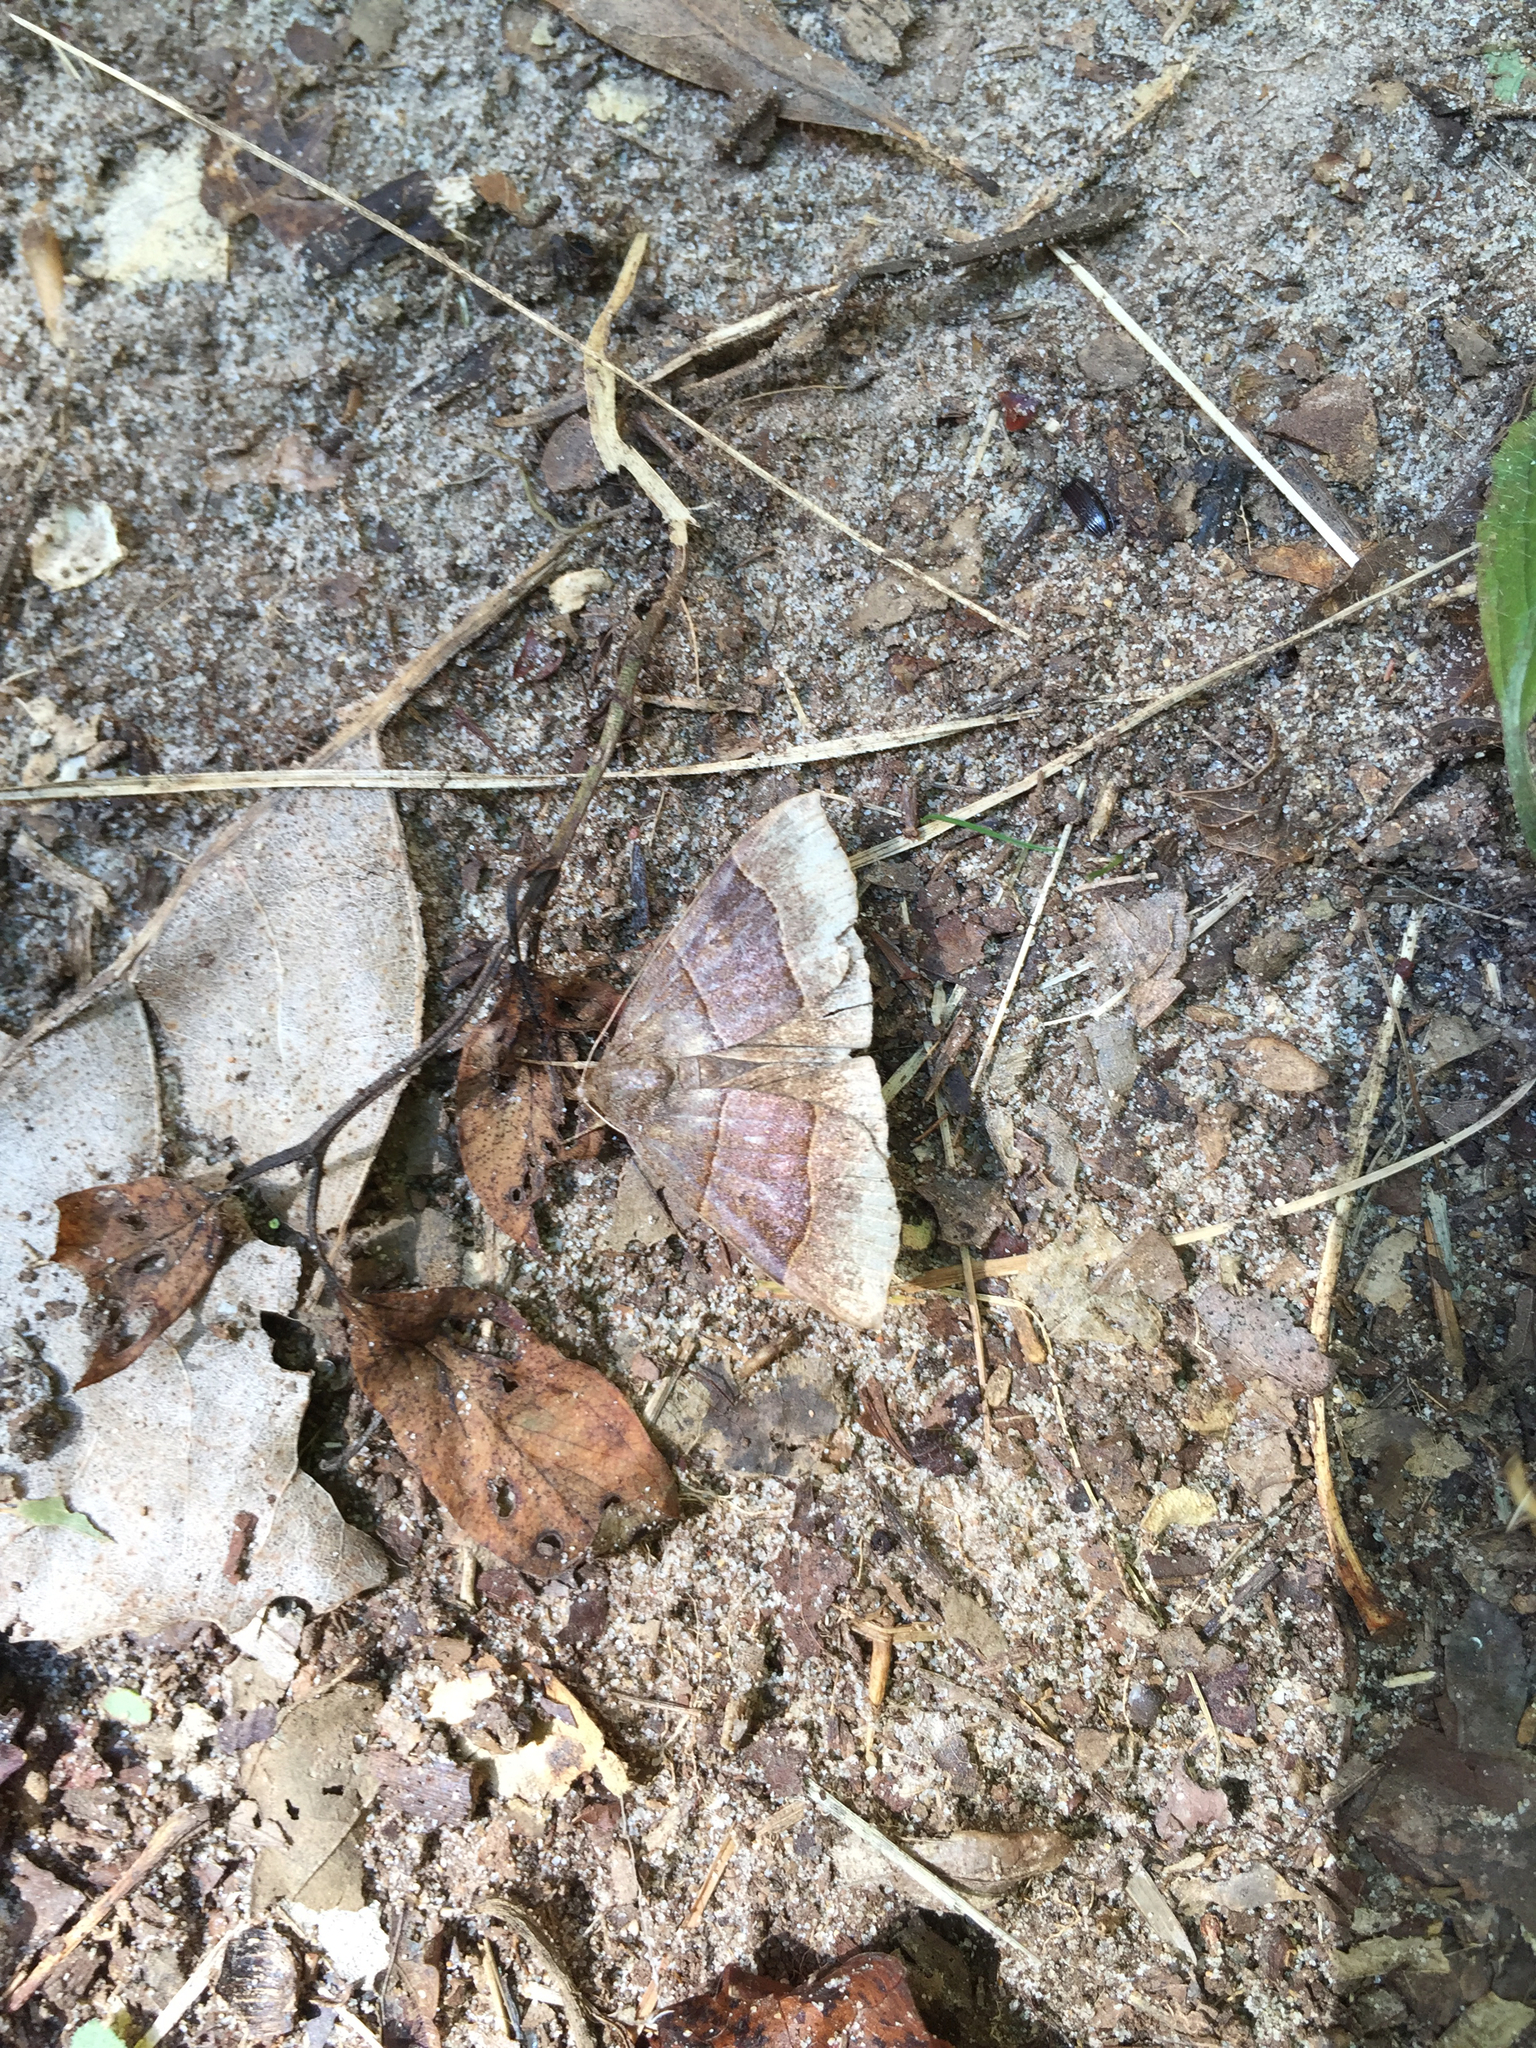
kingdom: Animalia
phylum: Arthropoda
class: Insecta
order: Lepidoptera
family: Erebidae
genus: Parallelia
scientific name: Parallelia bistriaris
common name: Maple looper moth
